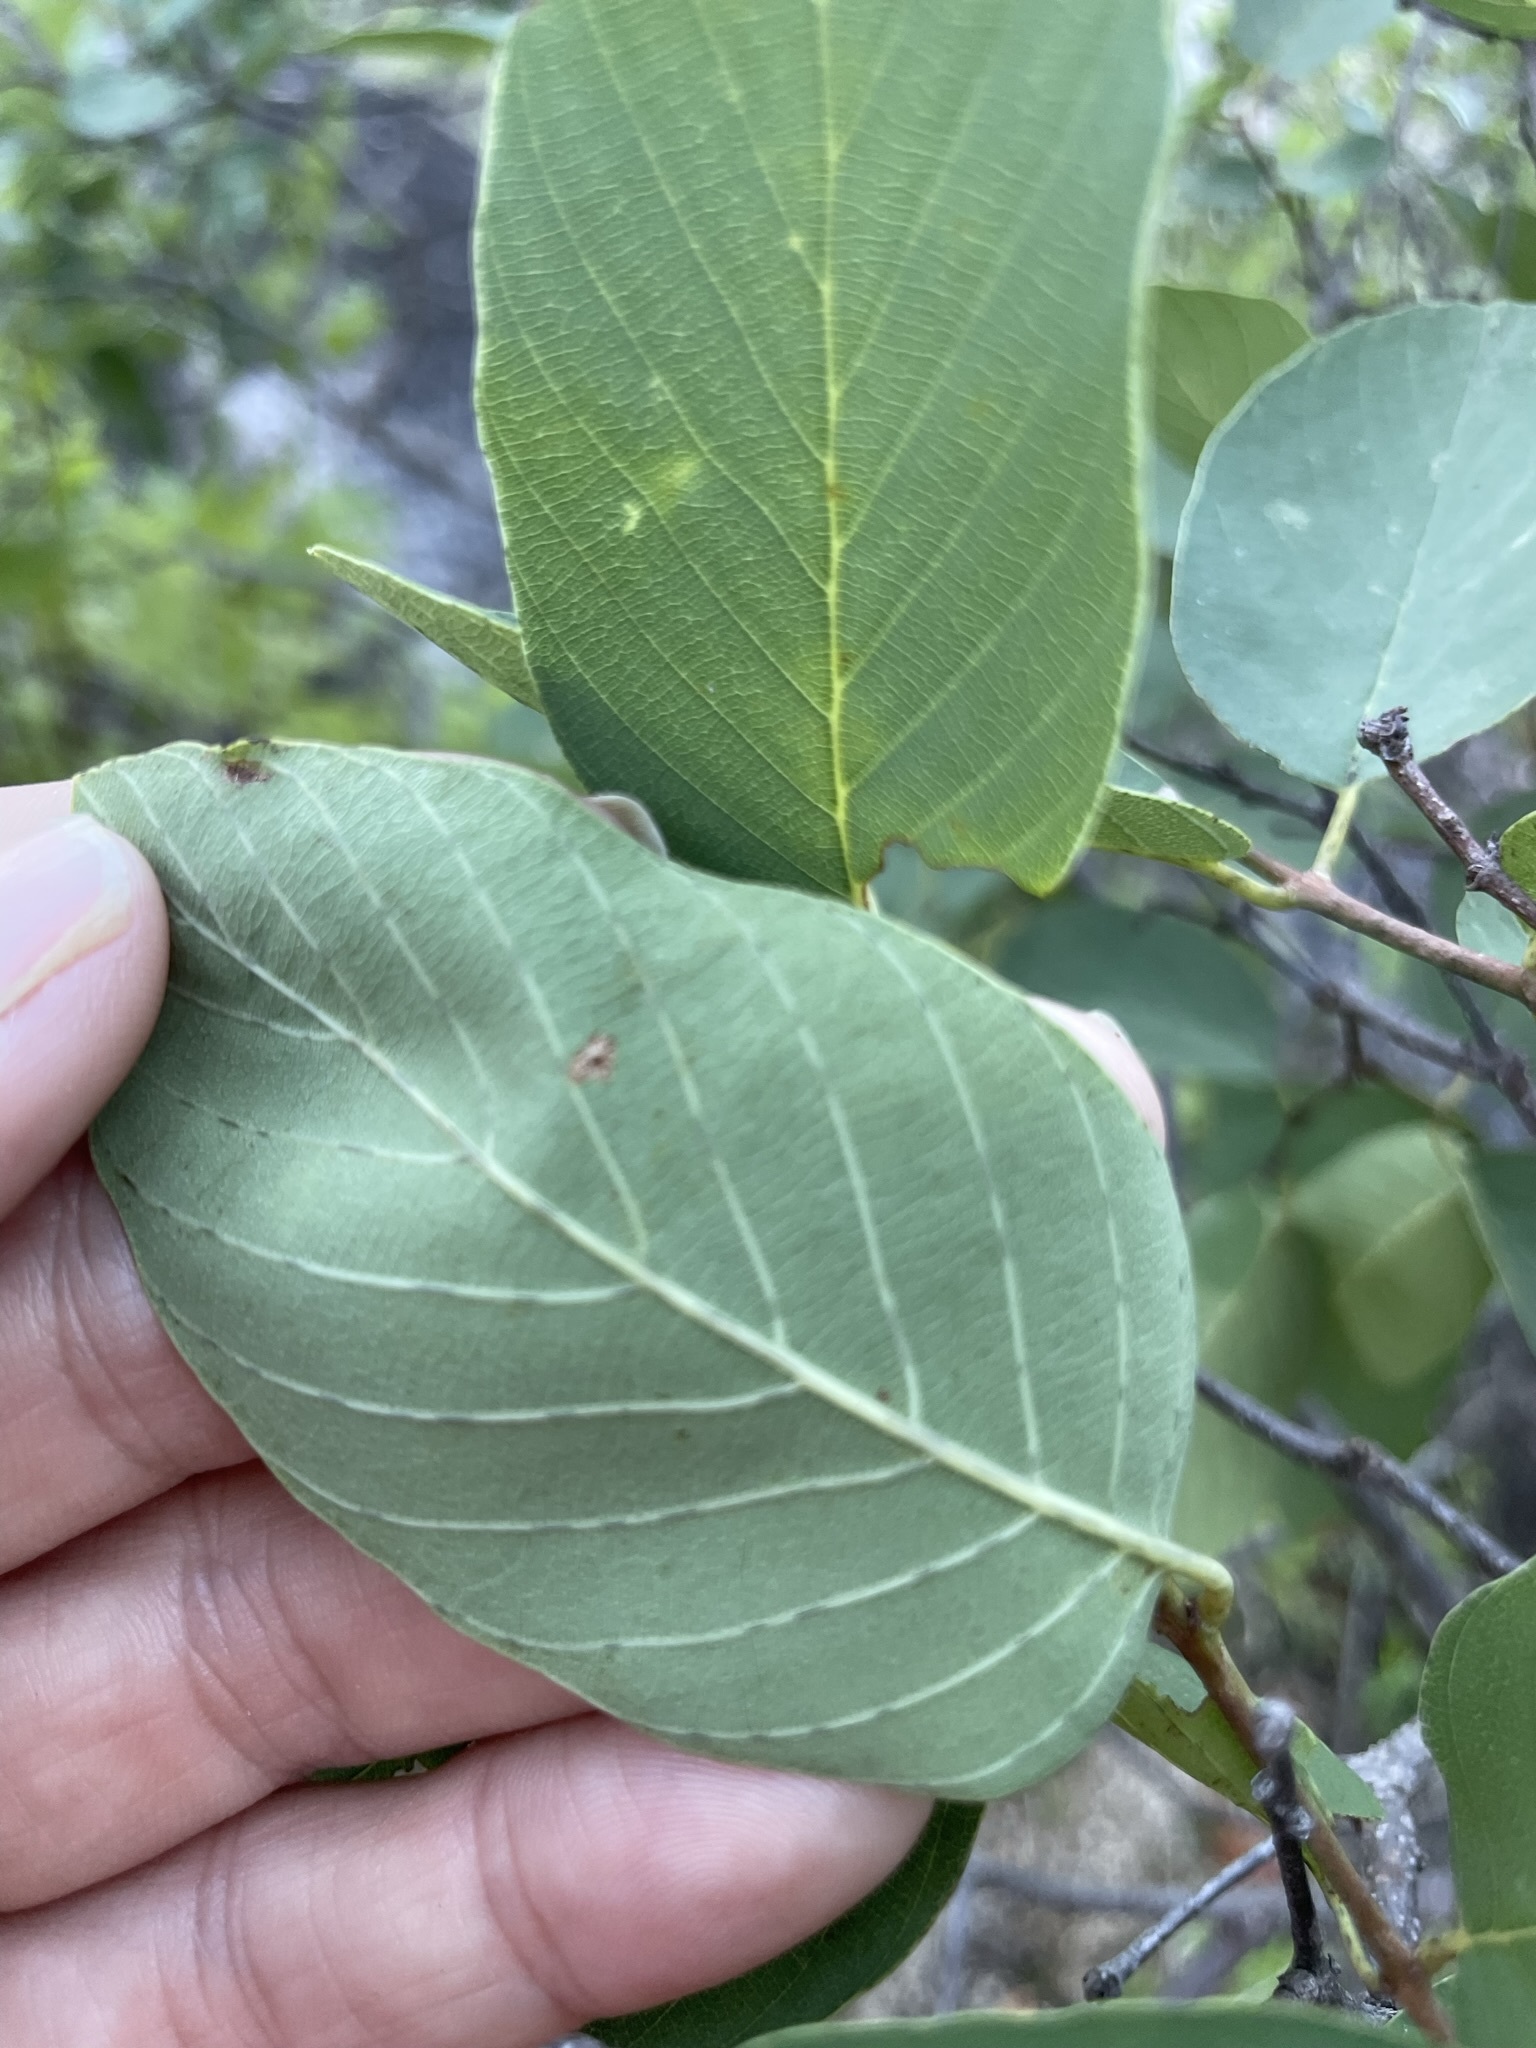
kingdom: Plantae
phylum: Tracheophyta
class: Magnoliopsida
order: Rosales
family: Rhamnaceae
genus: Karwinskia
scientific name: Karwinskia humboldtiana
